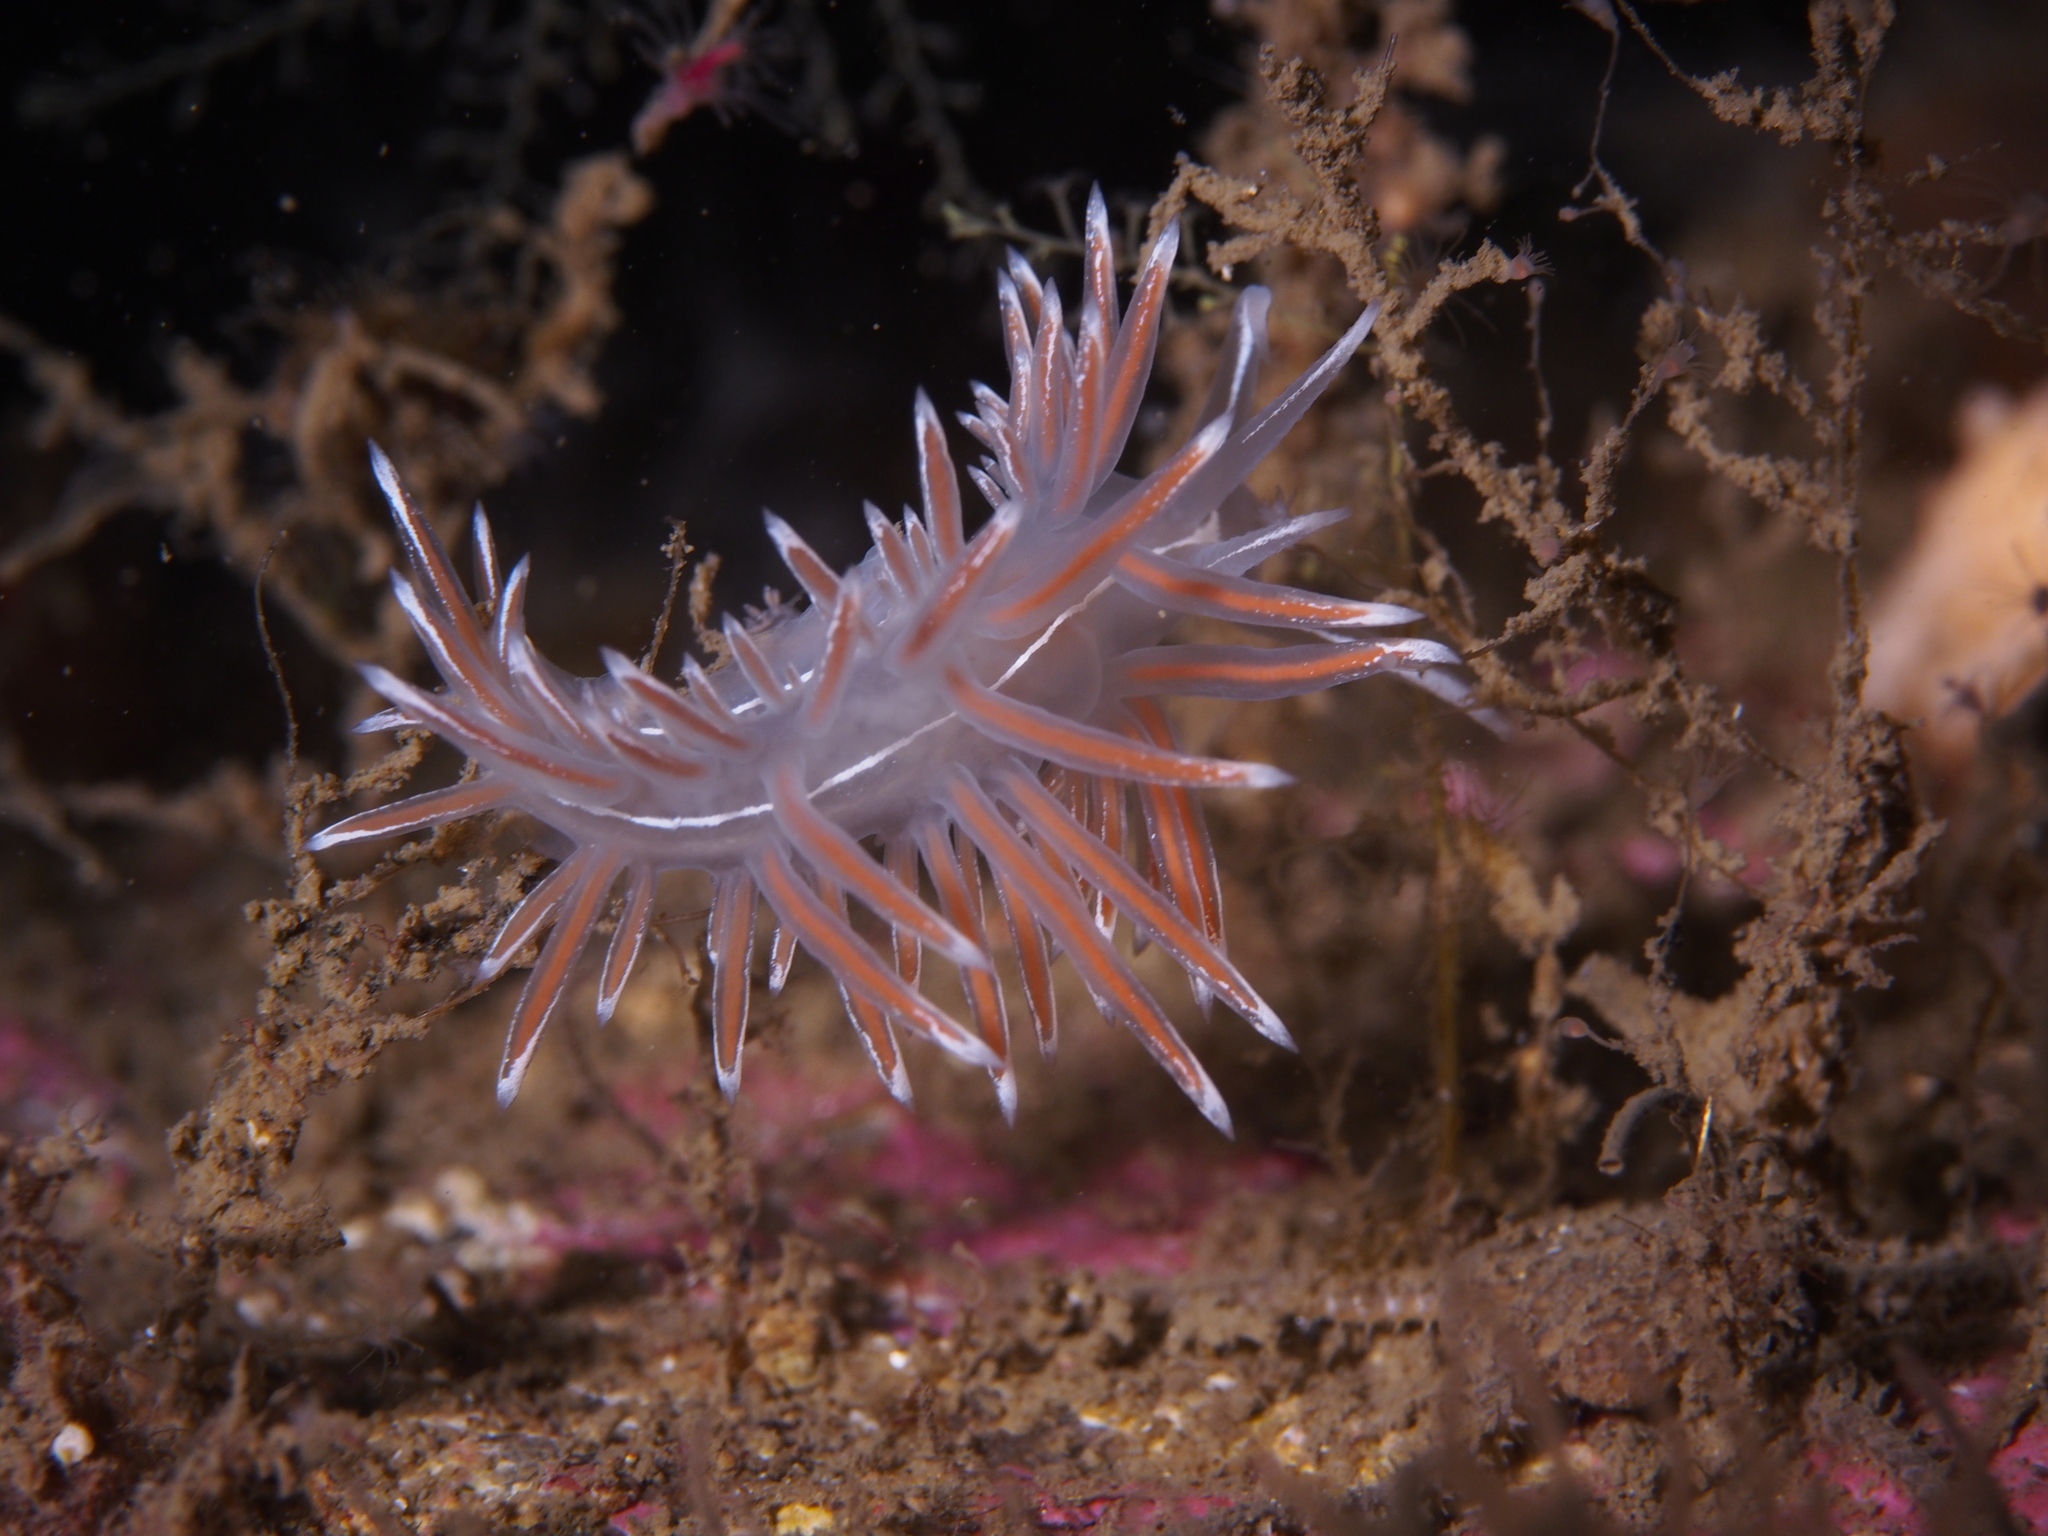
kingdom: Animalia
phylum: Mollusca
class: Gastropoda
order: Nudibranchia
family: Coryphellidae
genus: Coryphella
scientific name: Coryphella lineata
